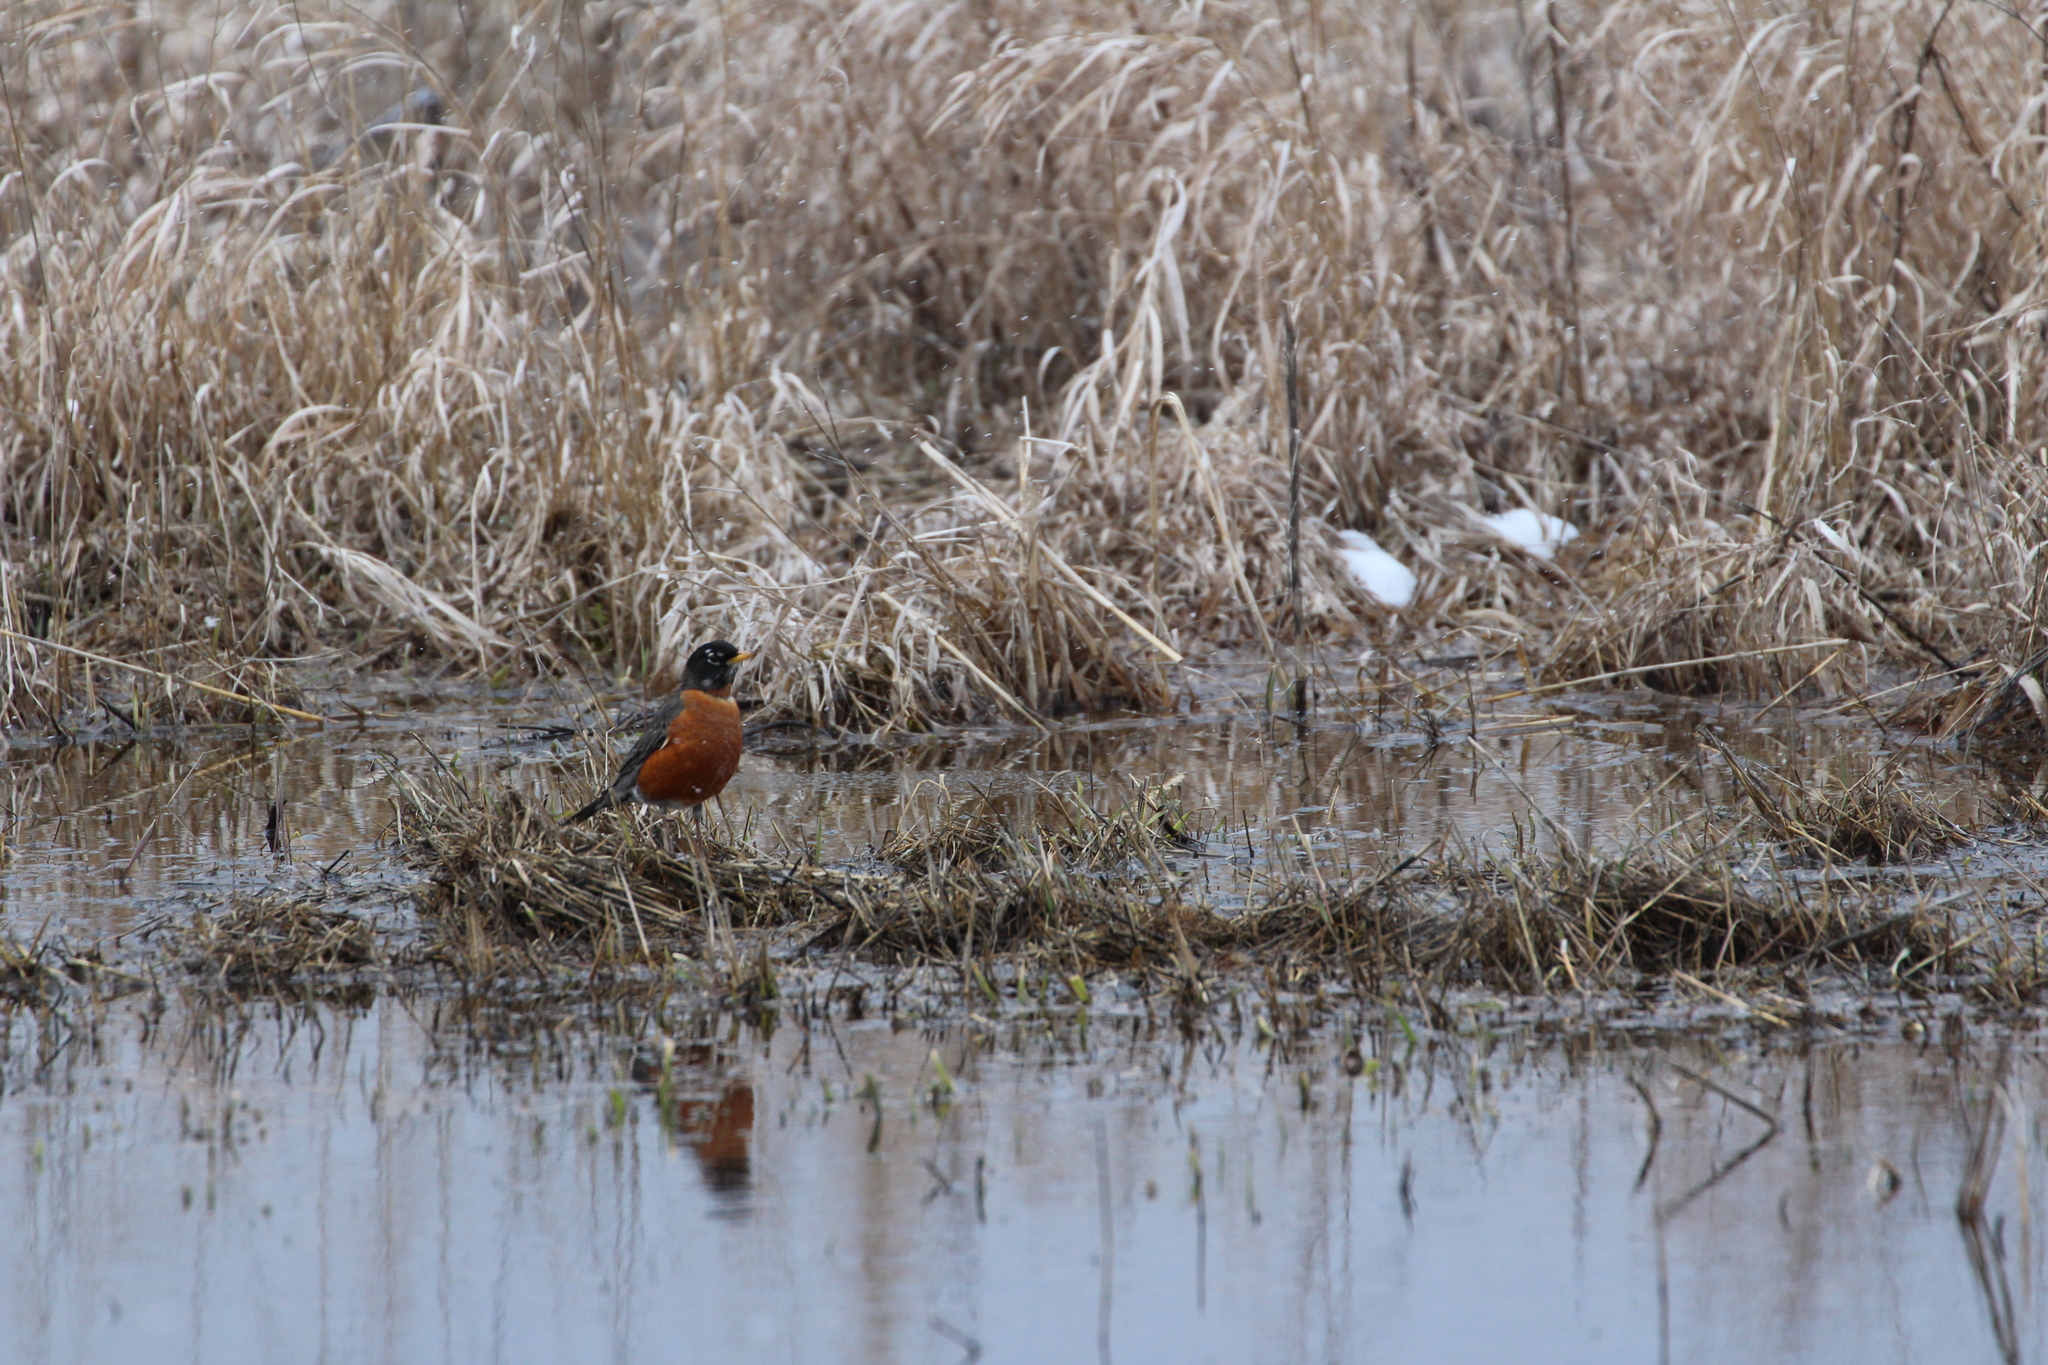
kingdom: Animalia
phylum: Chordata
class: Aves
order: Passeriformes
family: Turdidae
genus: Turdus
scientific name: Turdus migratorius
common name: American robin
